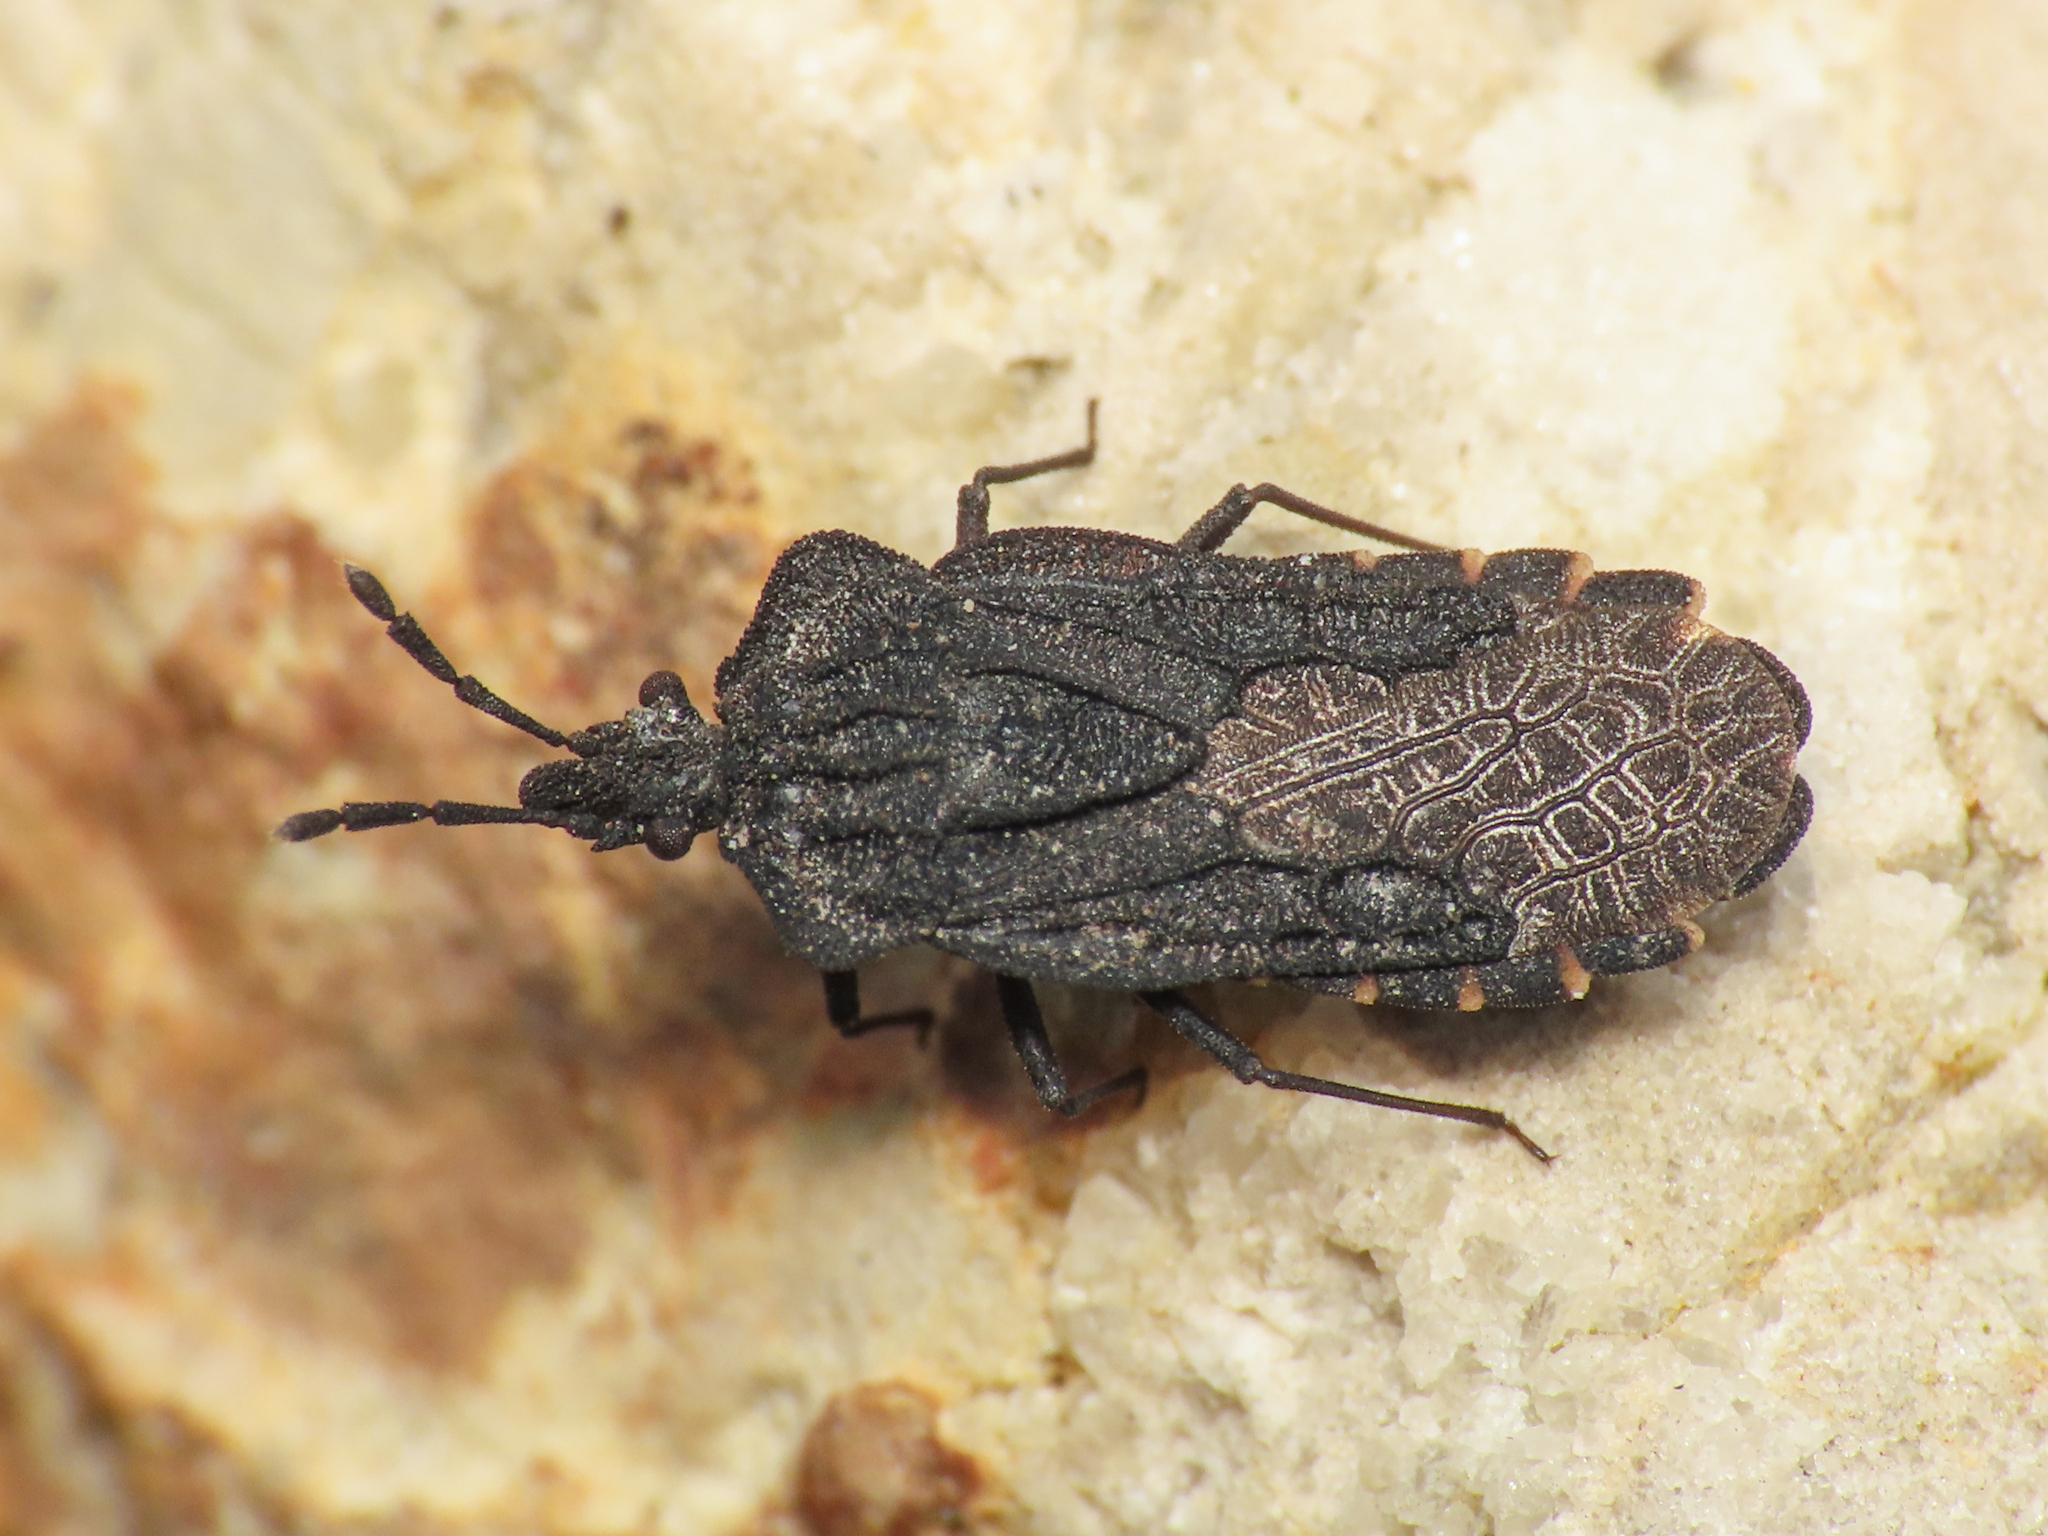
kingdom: Animalia
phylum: Arthropoda
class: Insecta
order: Hemiptera
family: Aradidae
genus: Aradus
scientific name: Aradus aterrimus
